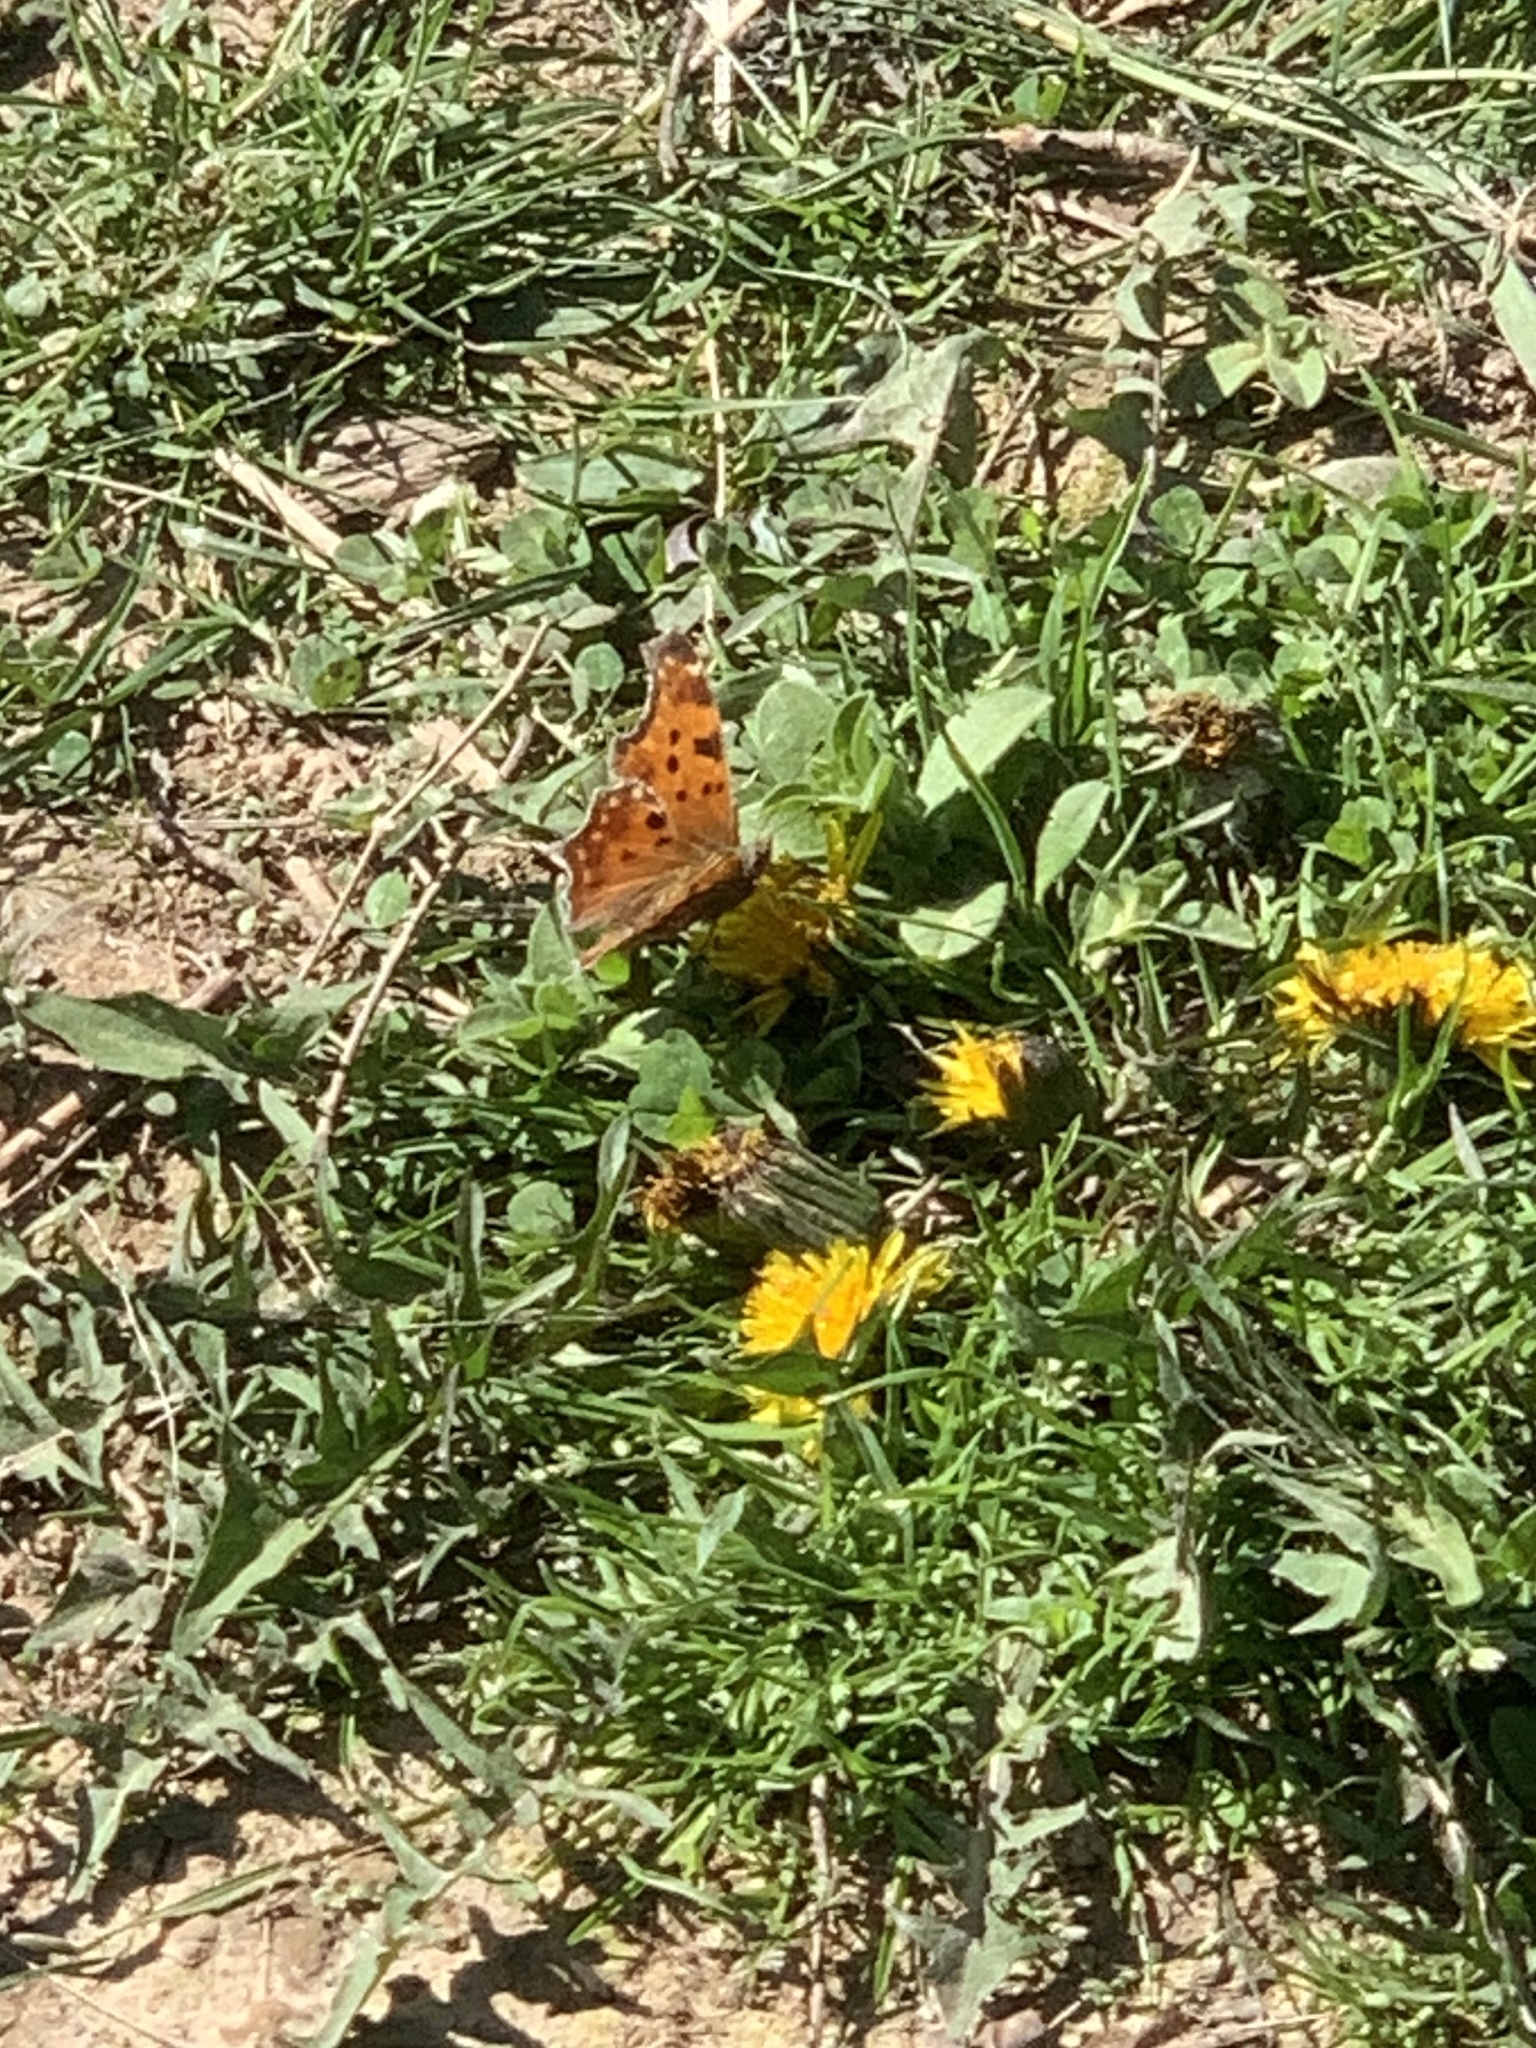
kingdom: Animalia
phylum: Arthropoda
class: Insecta
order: Lepidoptera
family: Nymphalidae
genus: Polygonia
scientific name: Polygonia comma
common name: Eastern comma
